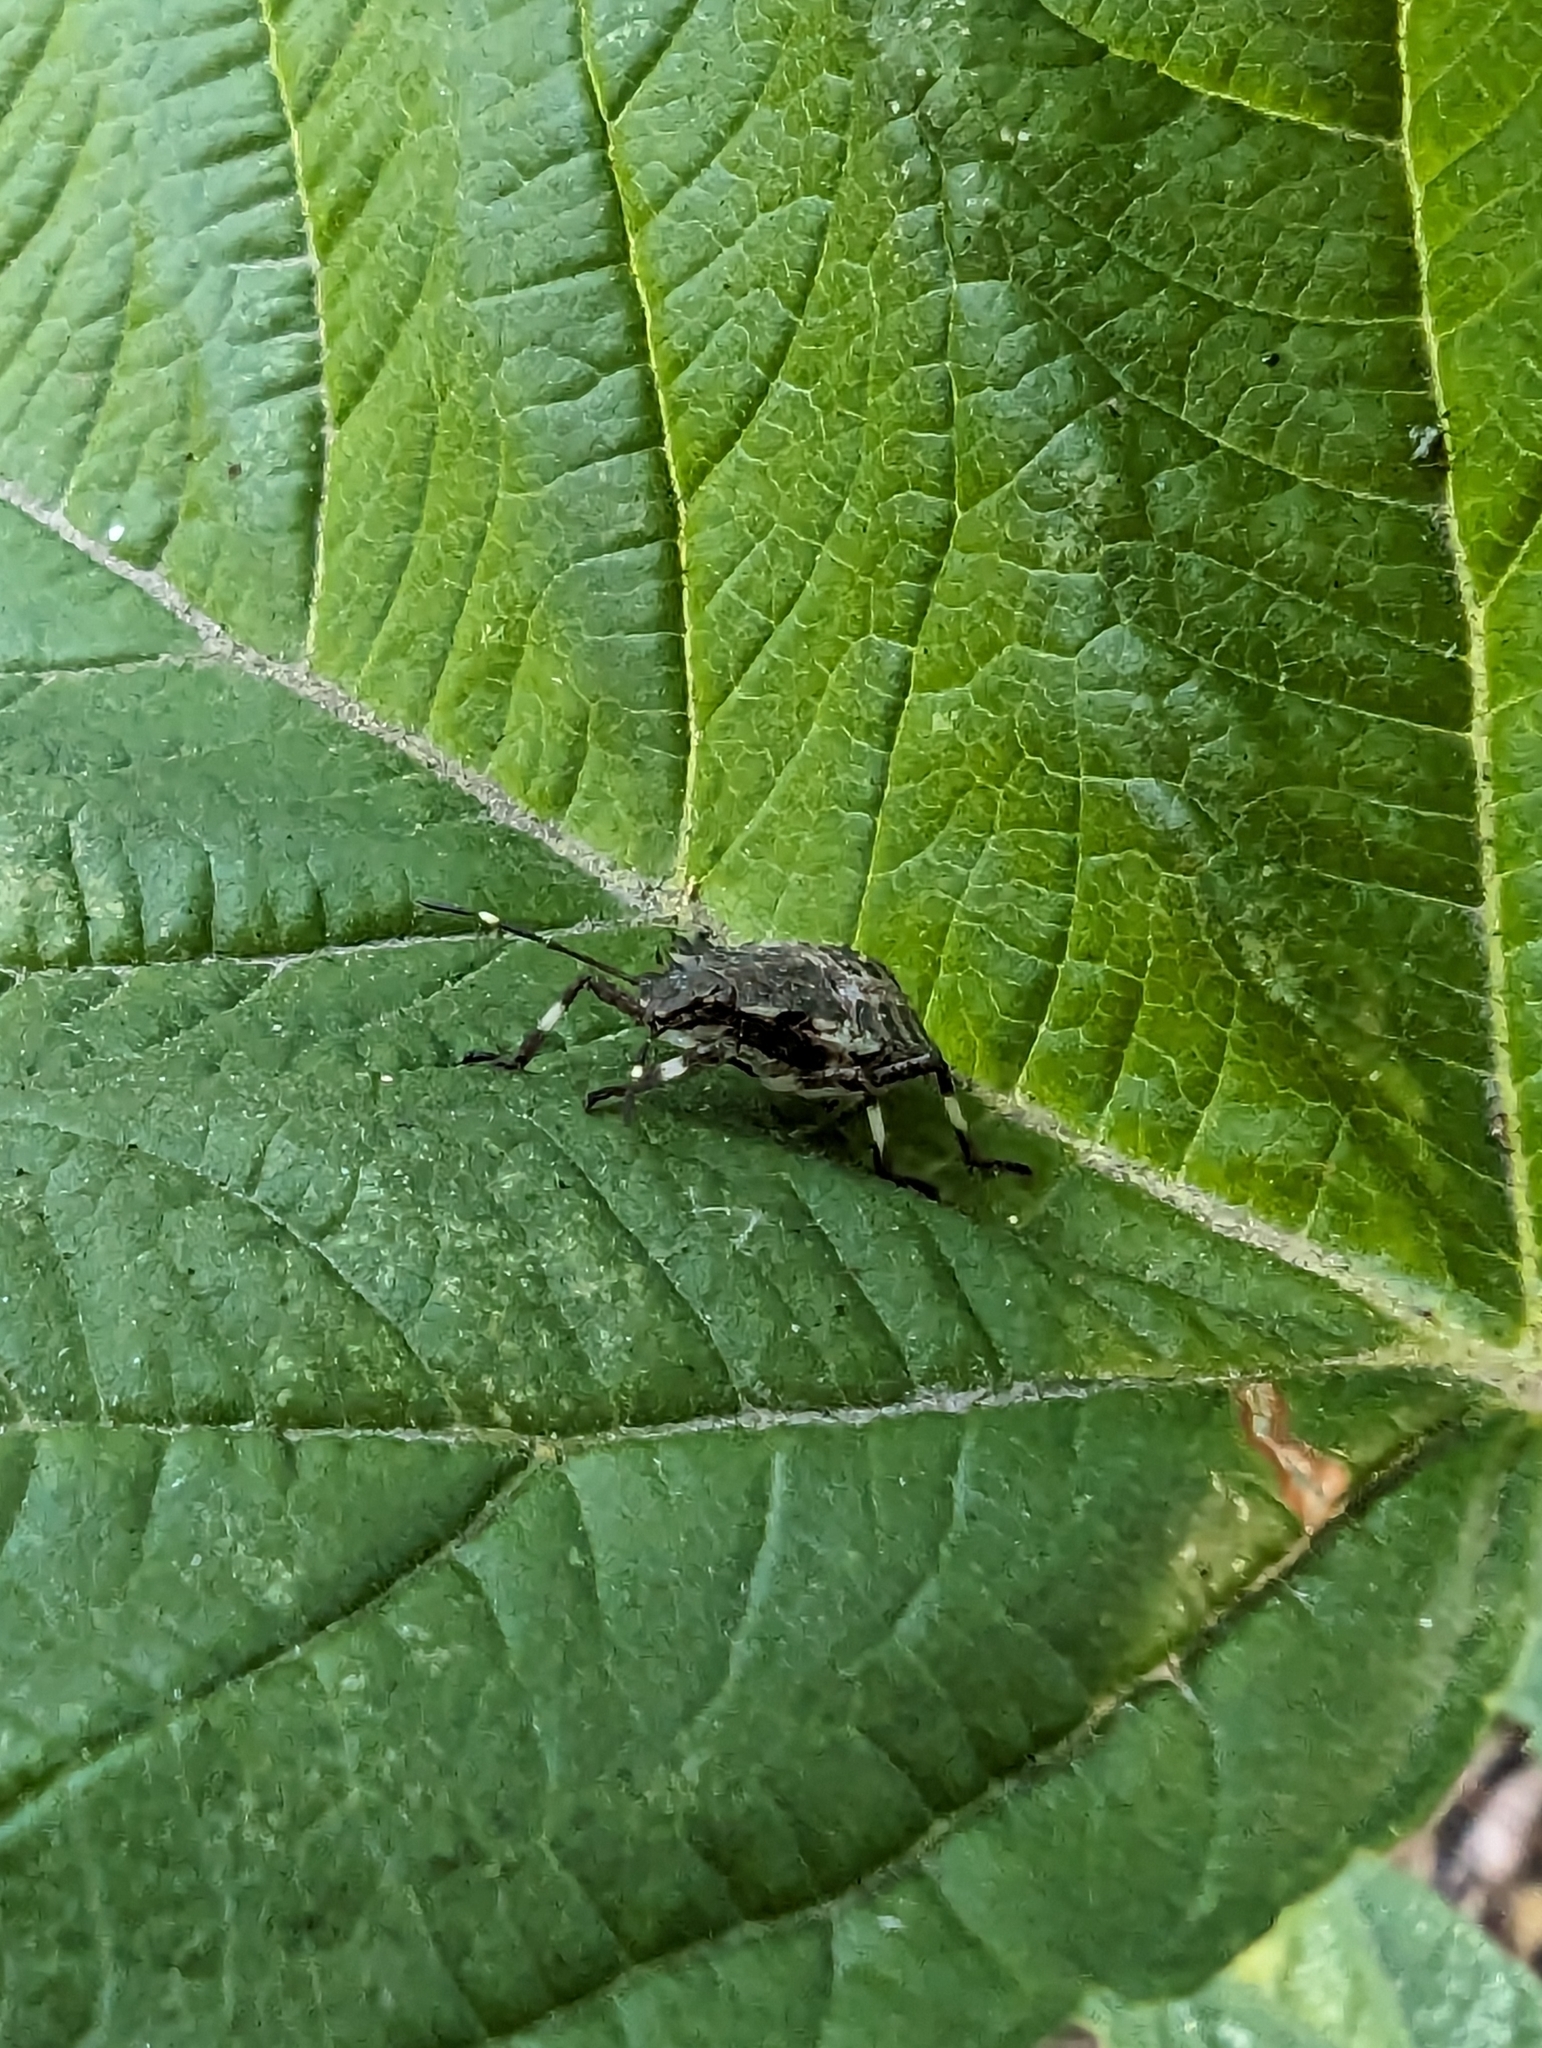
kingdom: Animalia
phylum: Arthropoda
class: Insecta
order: Hemiptera
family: Pentatomidae
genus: Halyomorpha
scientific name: Halyomorpha halys
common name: Brown marmorated stink bug
